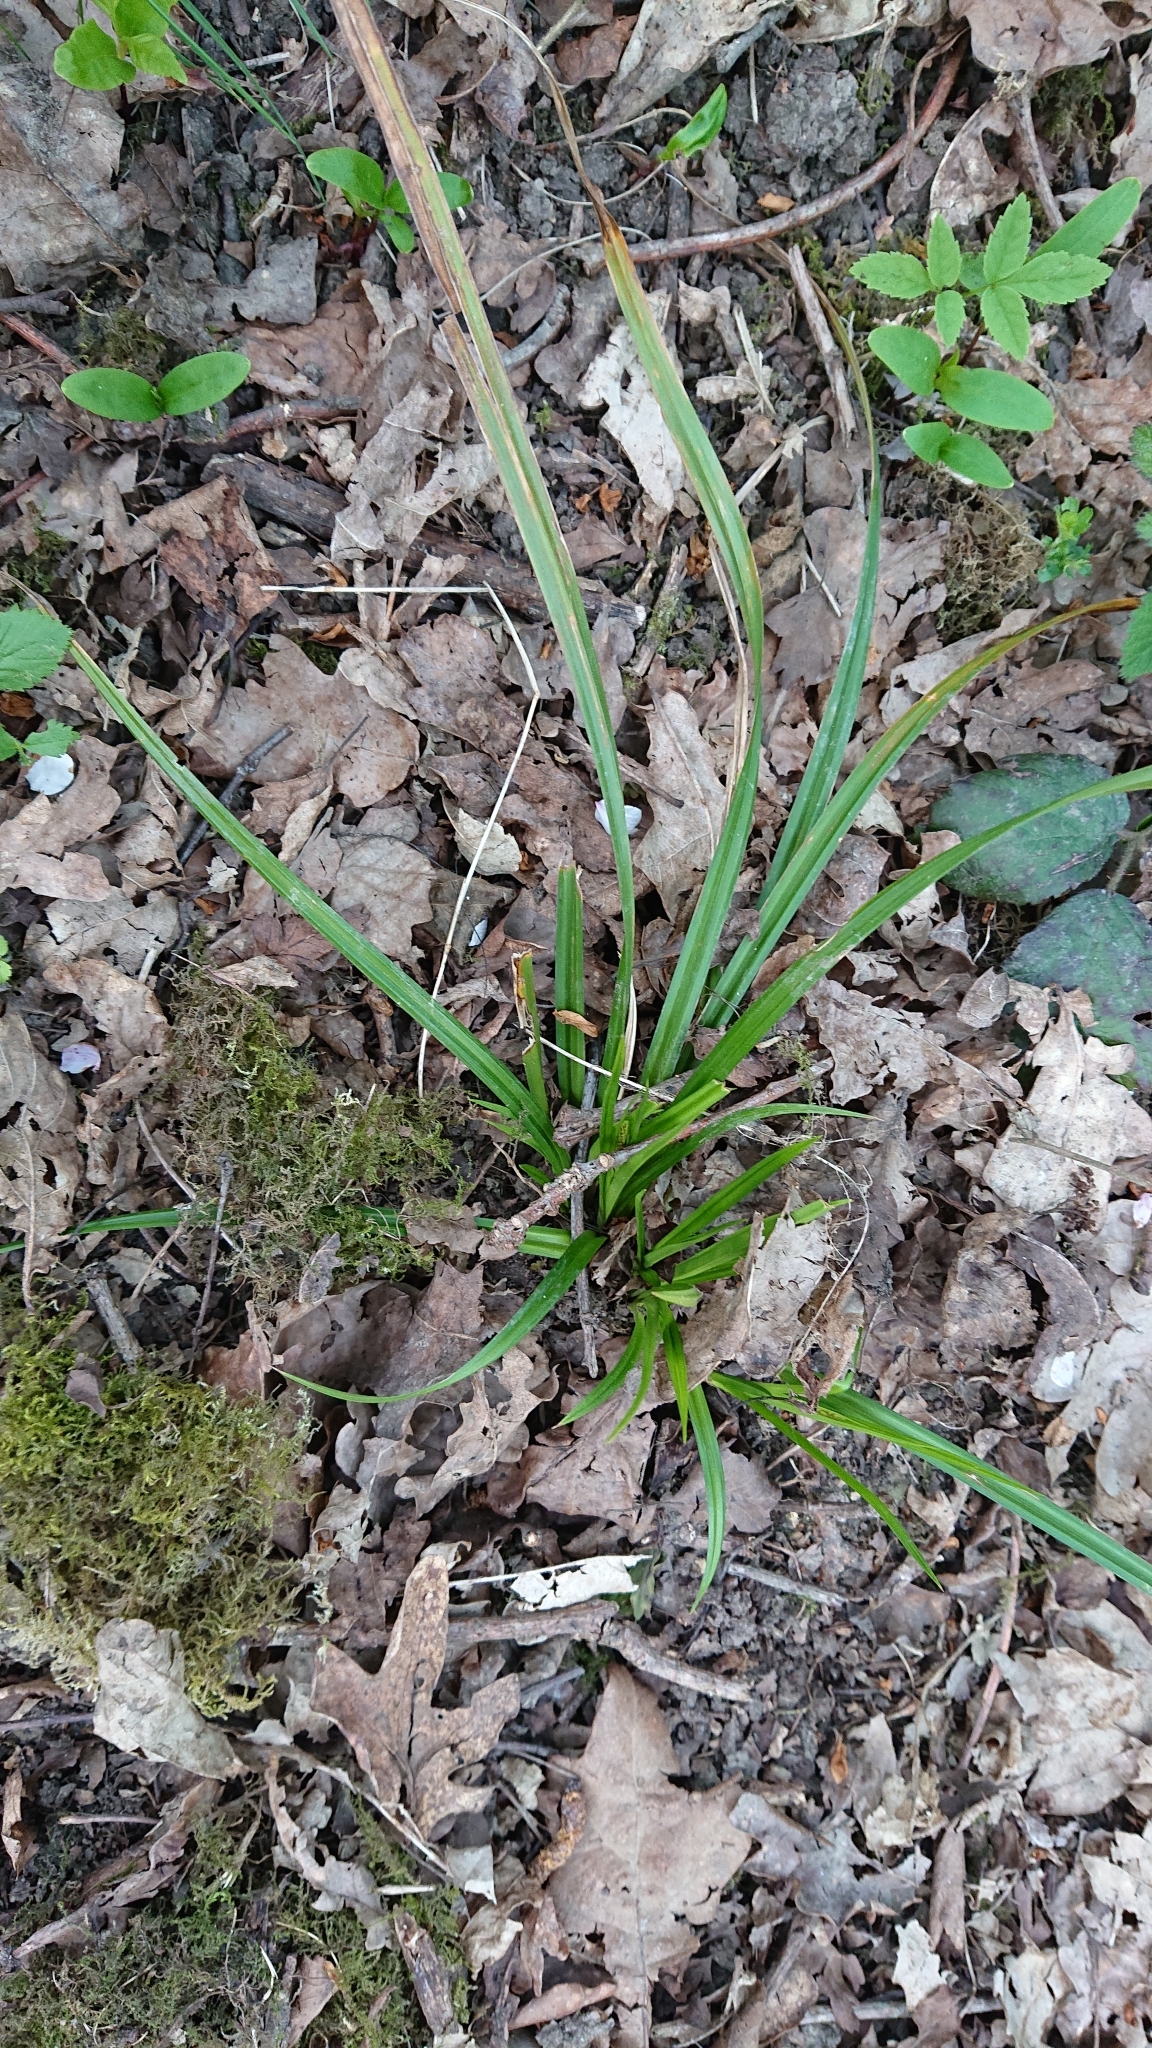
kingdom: Plantae
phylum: Tracheophyta
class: Liliopsida
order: Poales
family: Cyperaceae
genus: Carex
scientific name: Carex sylvatica
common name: Wood-sedge
